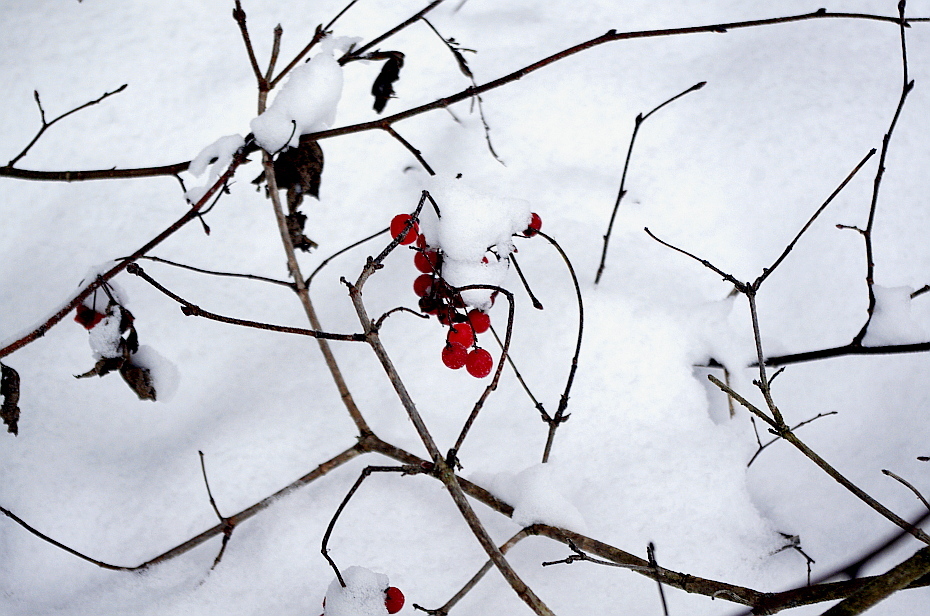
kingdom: Plantae
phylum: Tracheophyta
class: Magnoliopsida
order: Dipsacales
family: Viburnaceae
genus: Viburnum
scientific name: Viburnum opulus
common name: Guelder-rose
